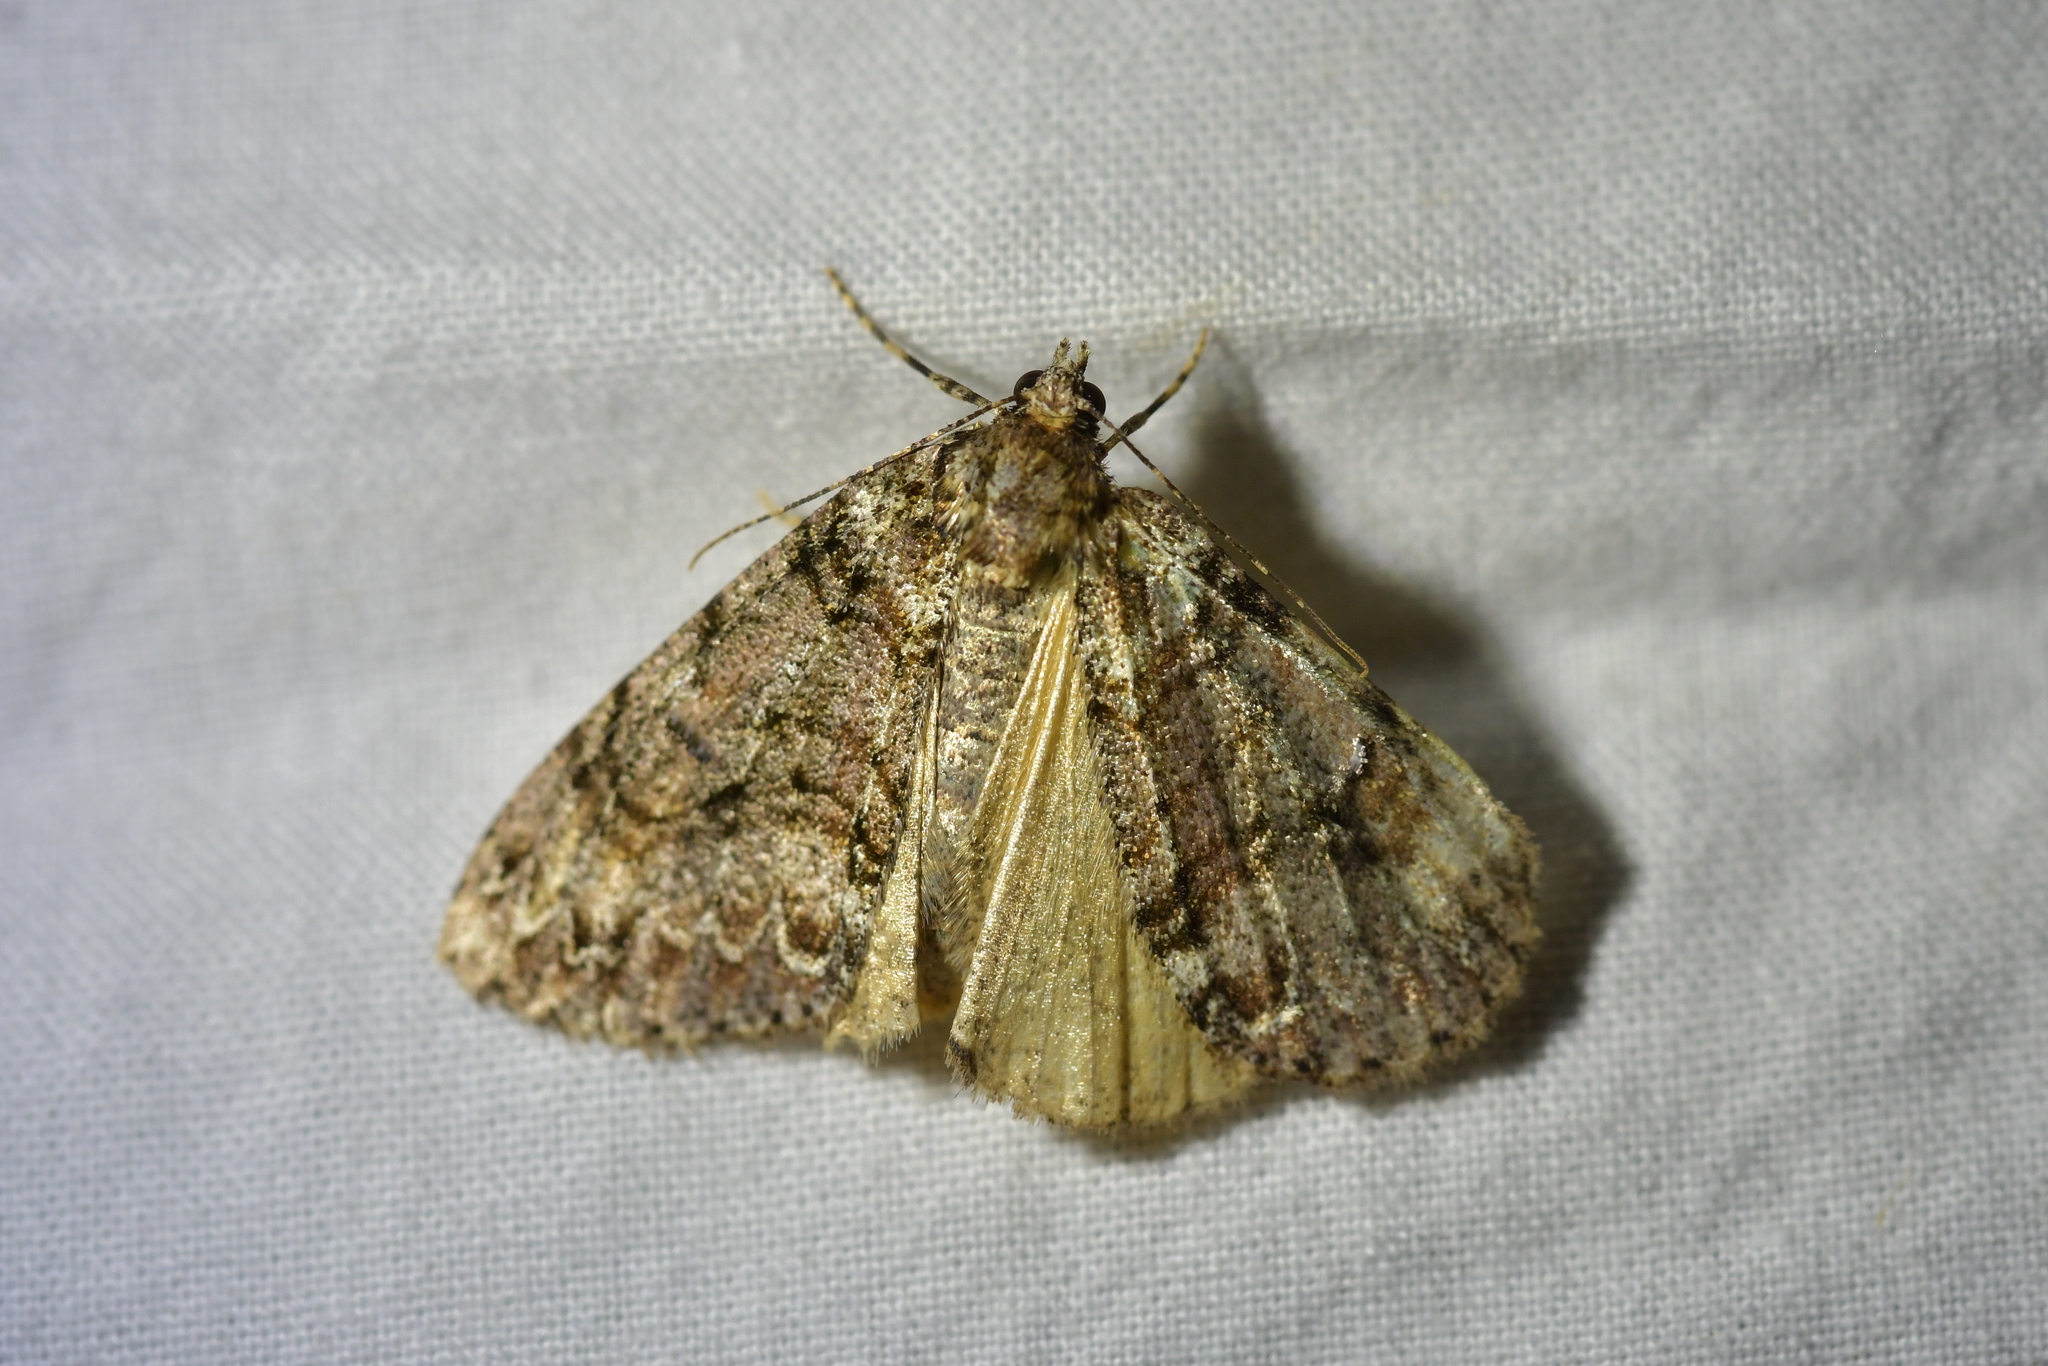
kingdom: Animalia
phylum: Arthropoda
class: Insecta
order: Lepidoptera
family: Geometridae
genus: Pseudocoremia
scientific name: Pseudocoremia suavis
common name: Common forest looper
